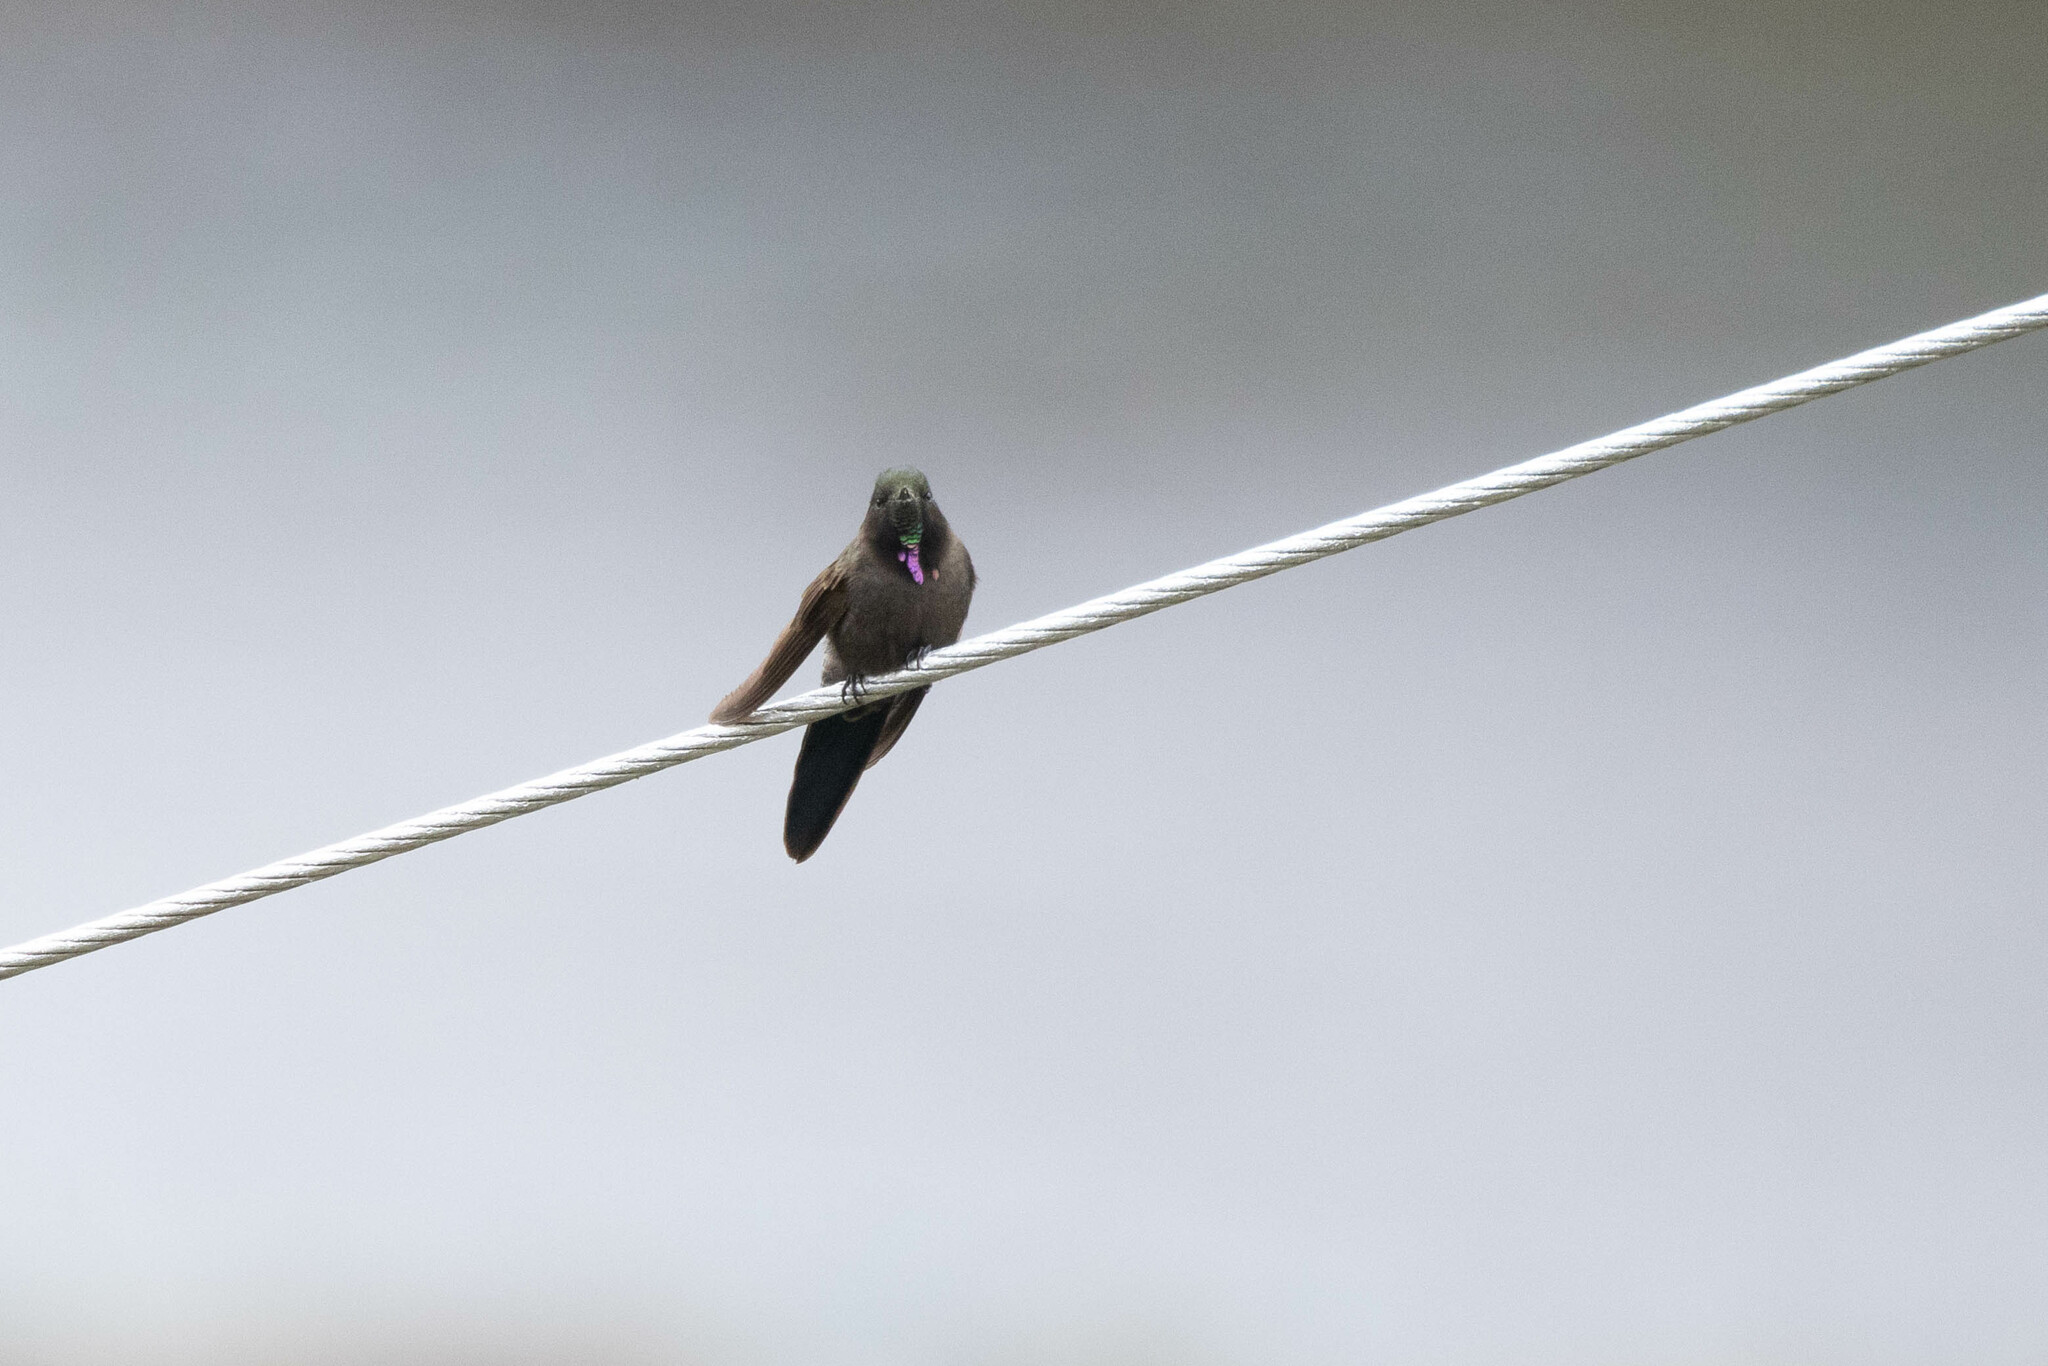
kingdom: Animalia
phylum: Chordata
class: Aves
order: Apodiformes
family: Trochilidae
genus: Chalcostigma
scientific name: Chalcostigma stanleyi
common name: Blue-mantled thornbill
